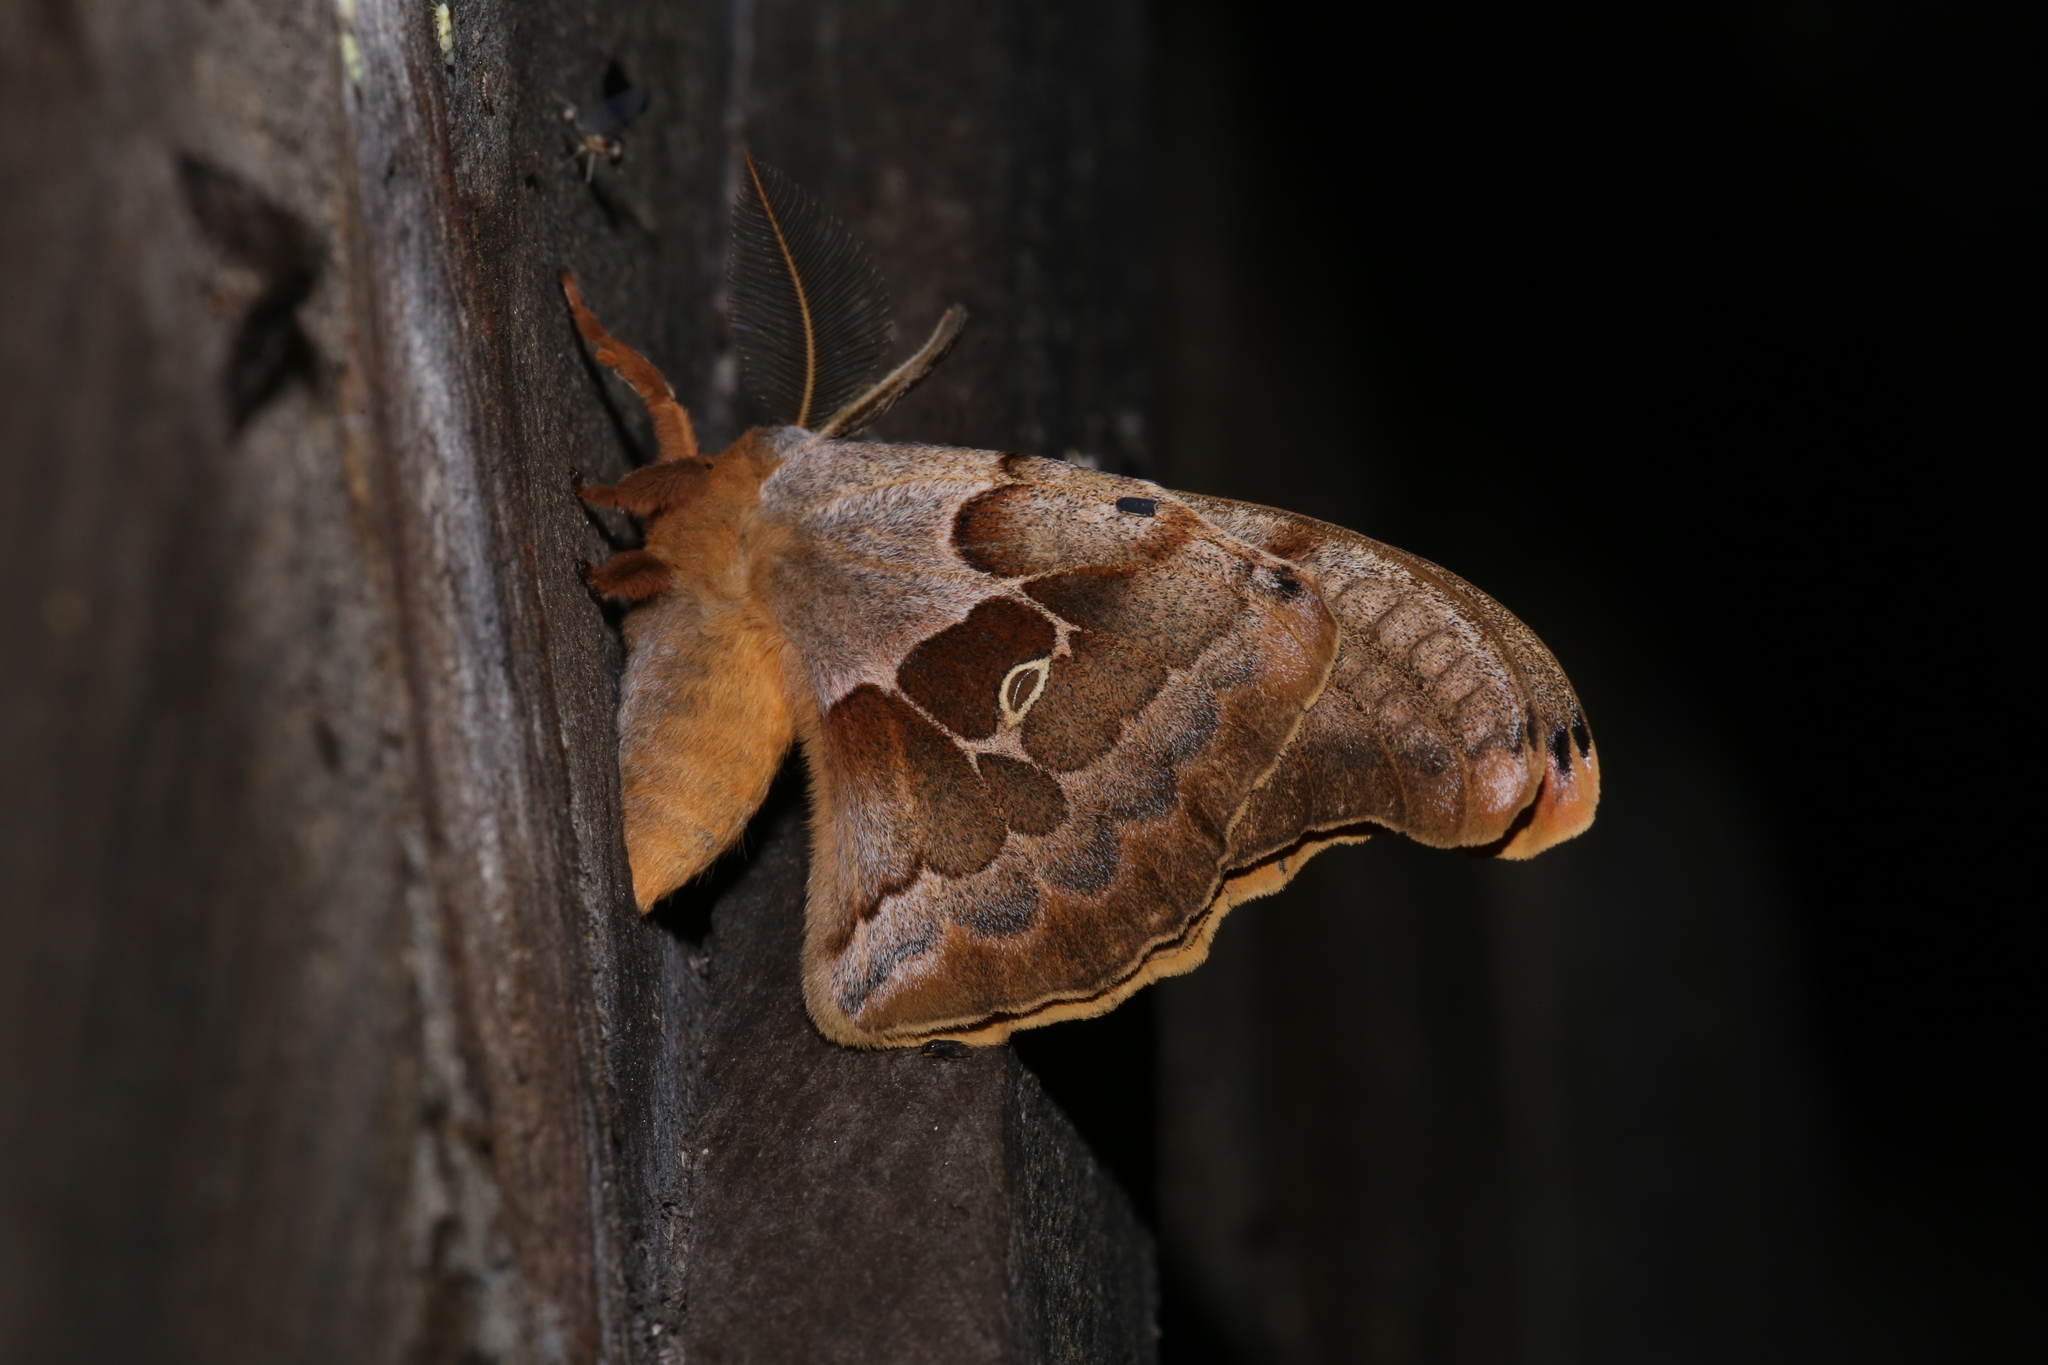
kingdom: Animalia
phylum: Arthropoda
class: Insecta
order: Lepidoptera
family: Saturniidae
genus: Antheraea
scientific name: Antheraea polyphemus
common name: Polyphemus moth
